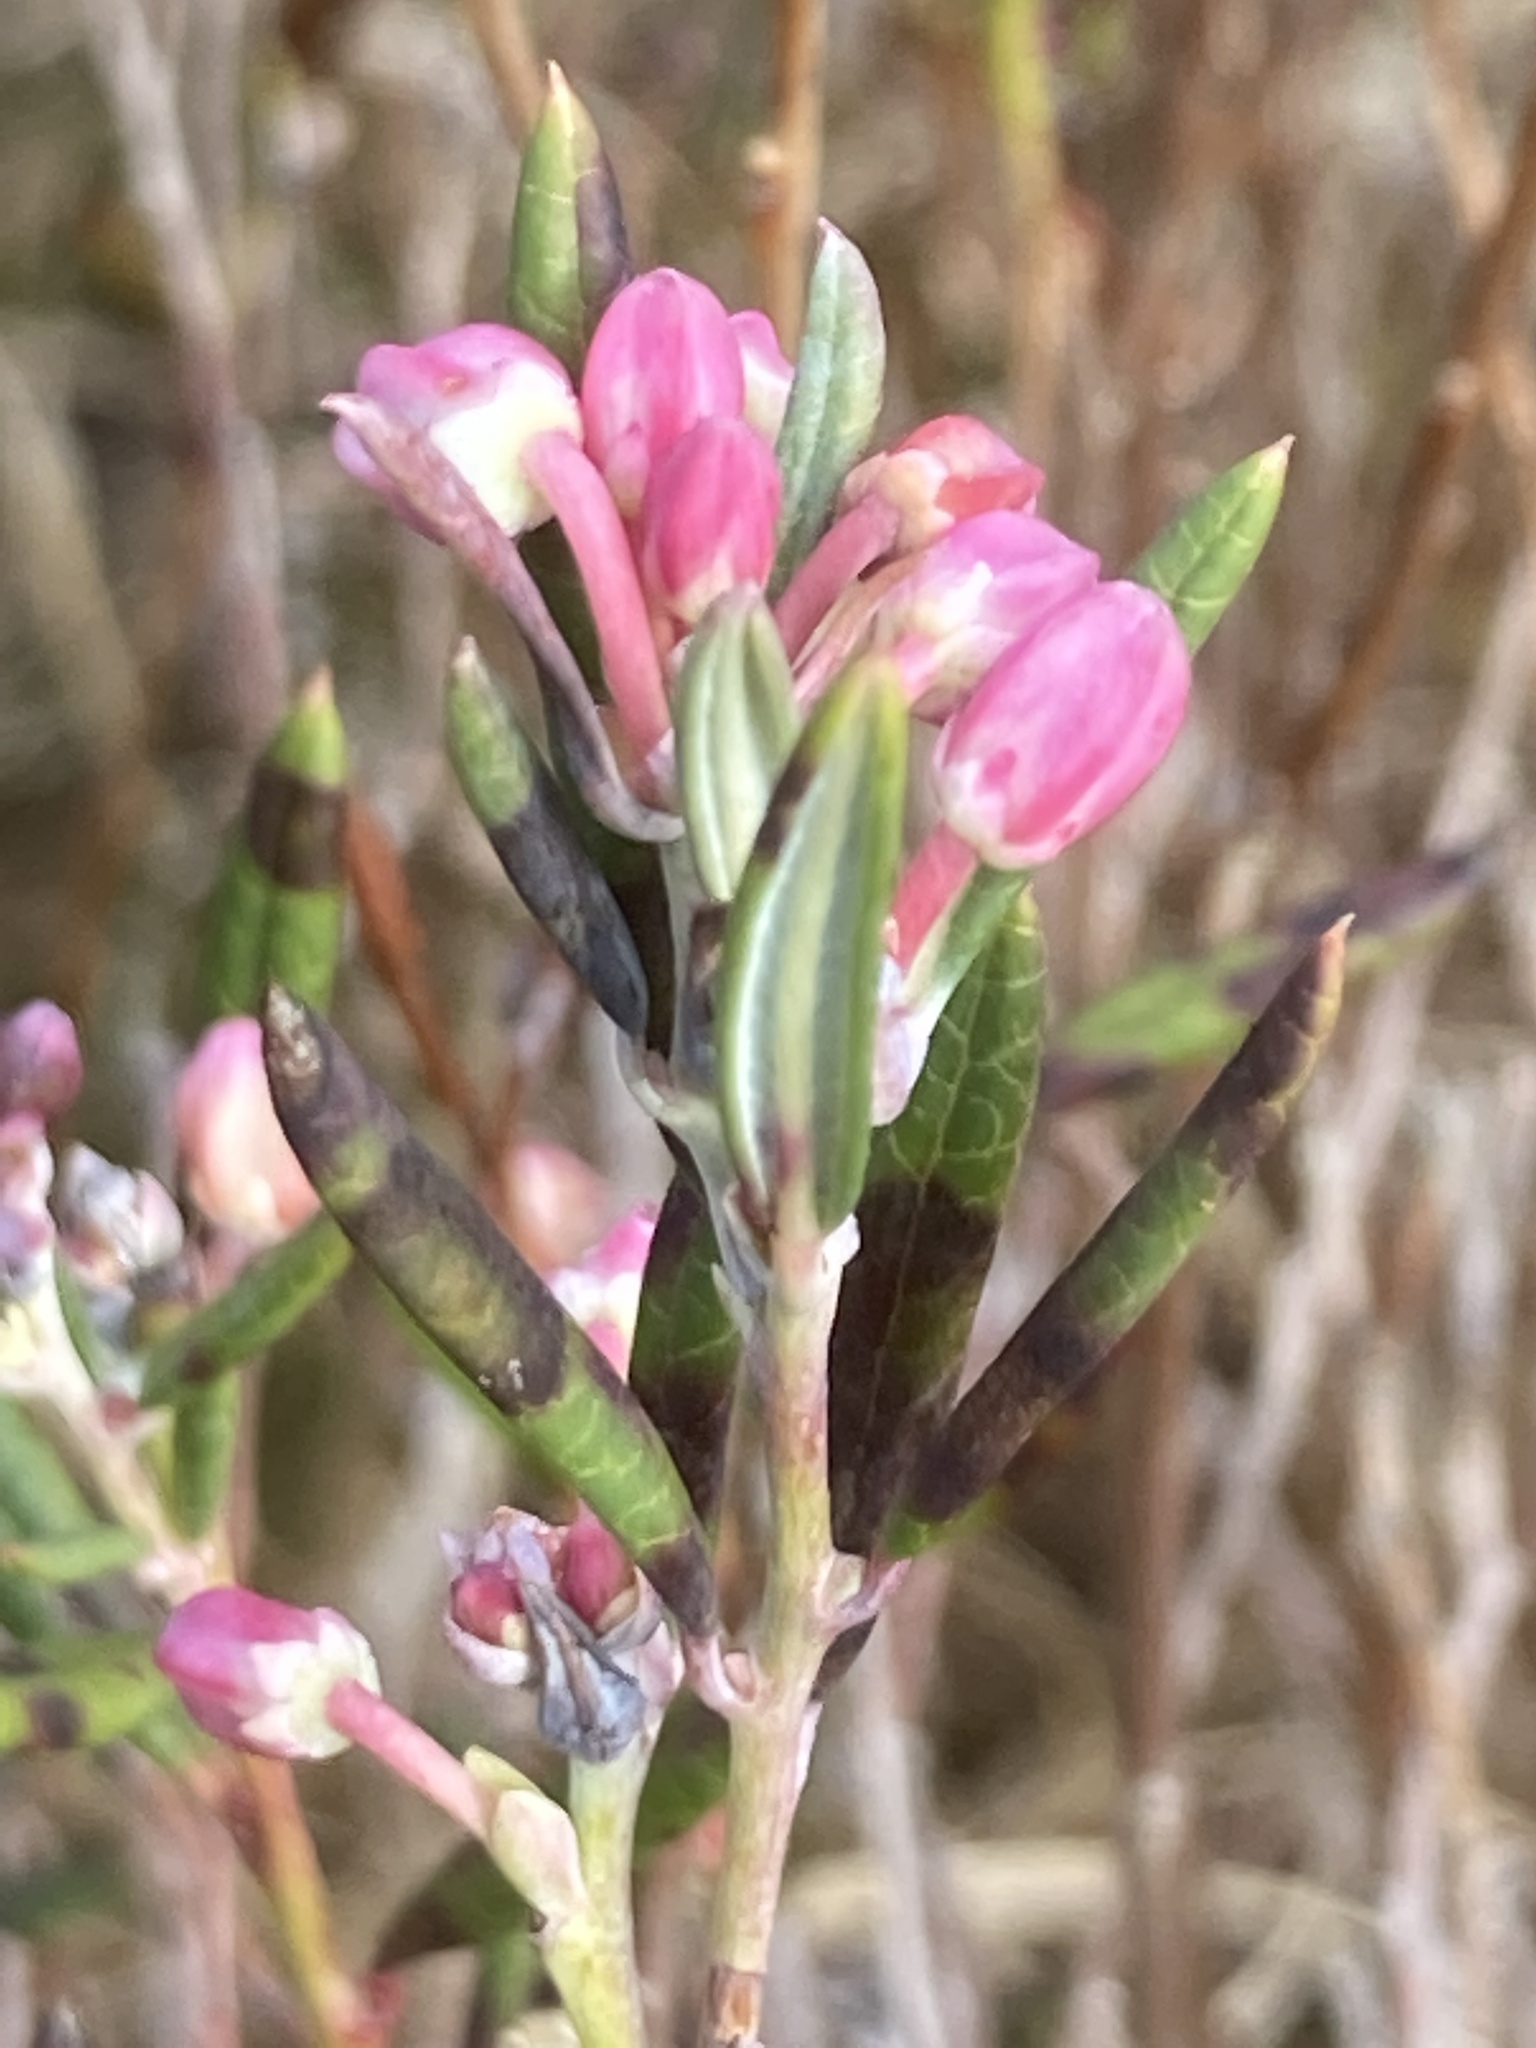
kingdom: Plantae
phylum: Tracheophyta
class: Magnoliopsida
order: Ericales
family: Ericaceae
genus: Andromeda
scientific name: Andromeda polifolia
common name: Bog-rosemary
